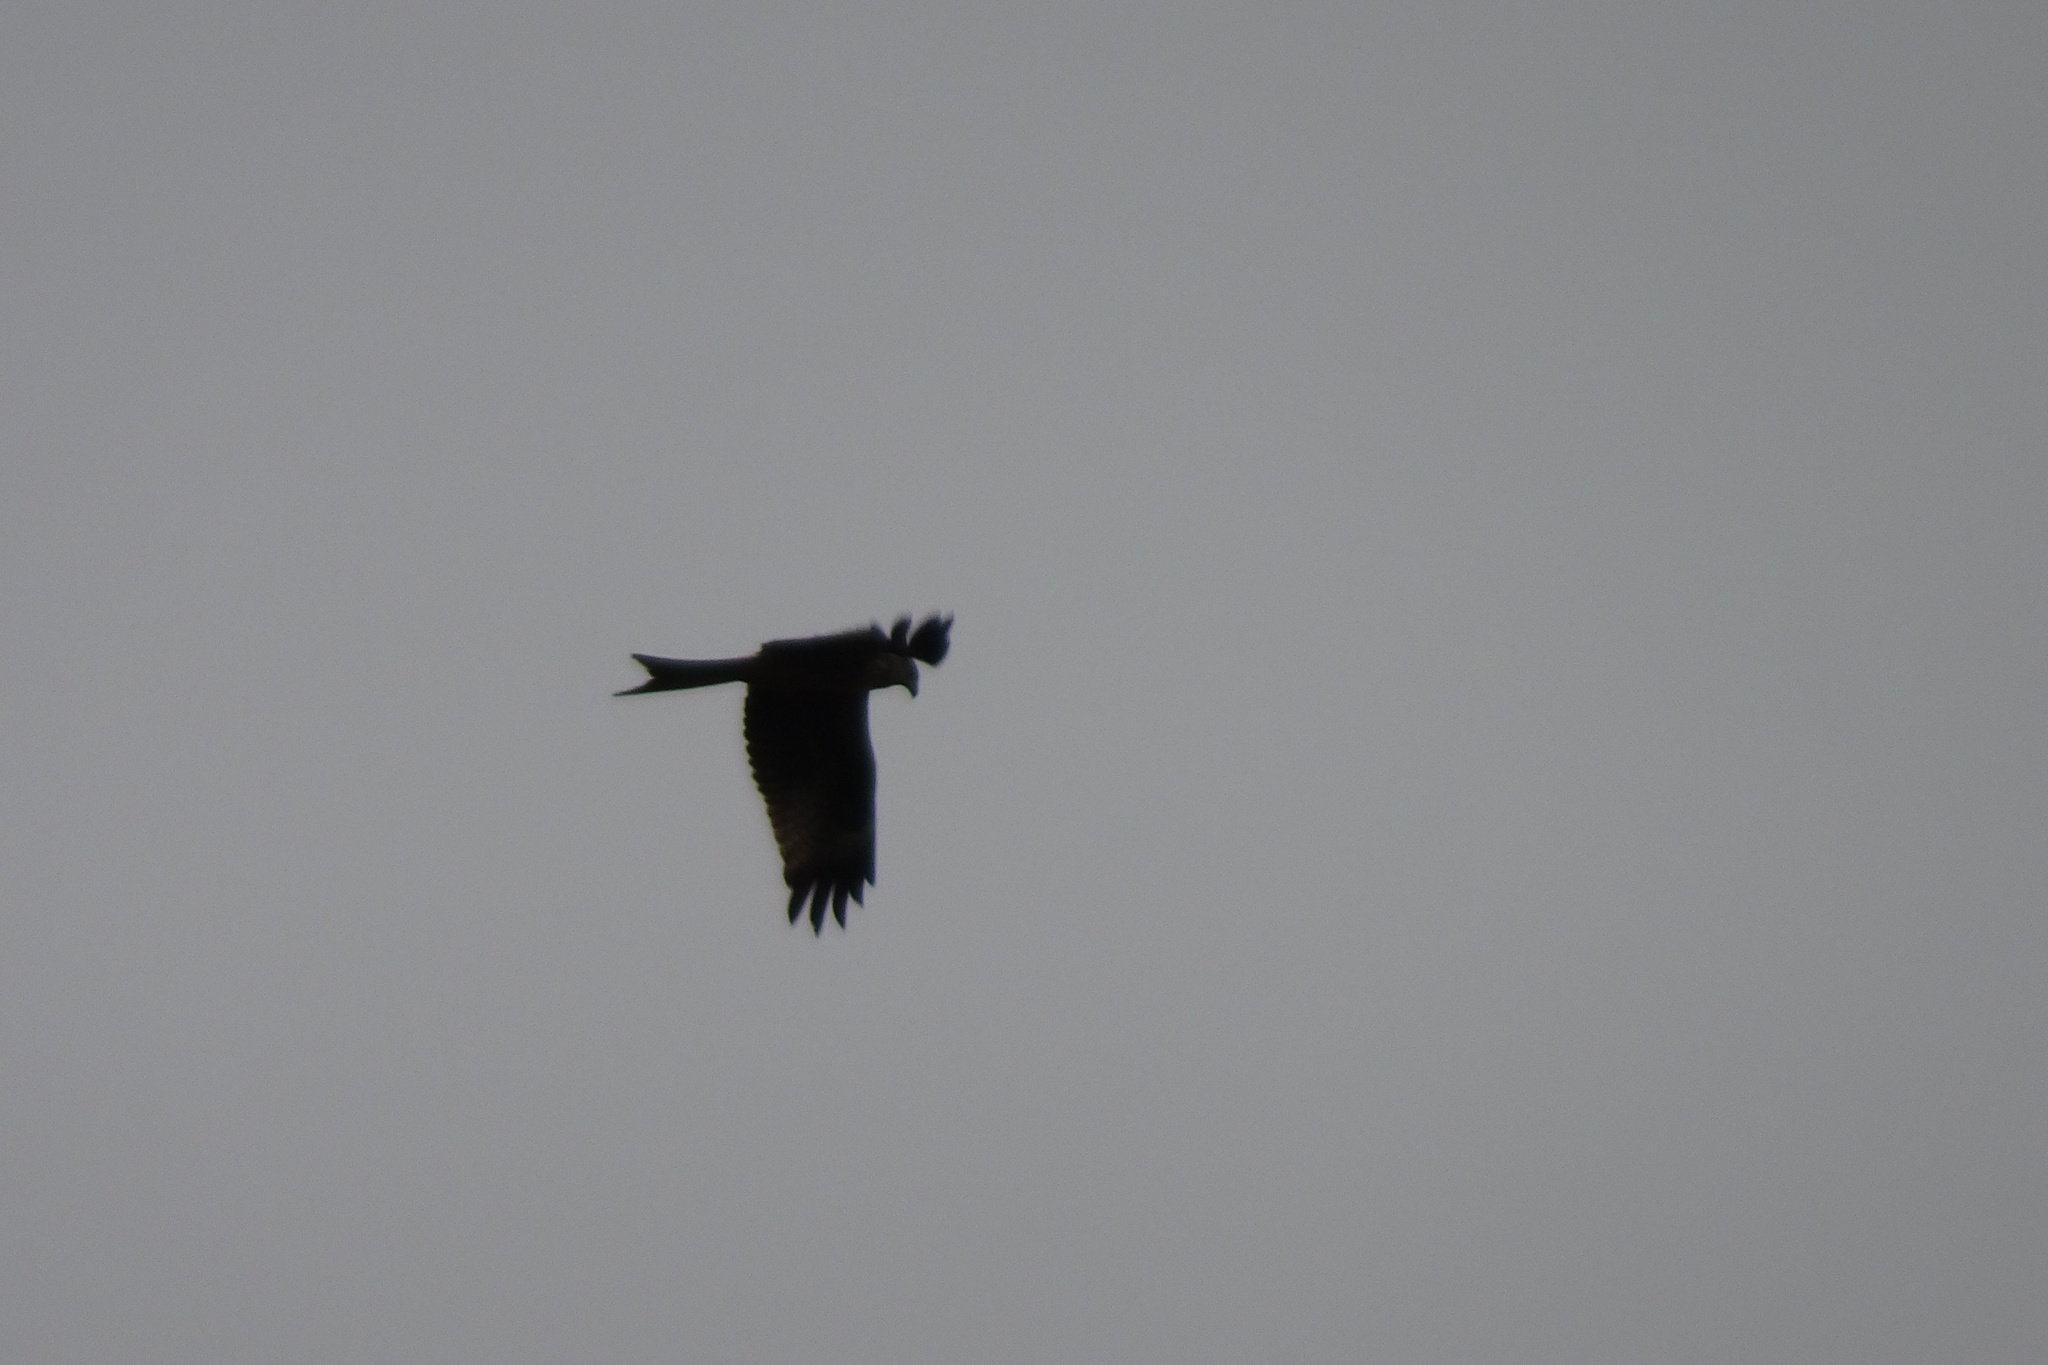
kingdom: Animalia
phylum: Chordata
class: Aves
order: Accipitriformes
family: Accipitridae
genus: Milvus
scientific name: Milvus milvus
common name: Red kite
